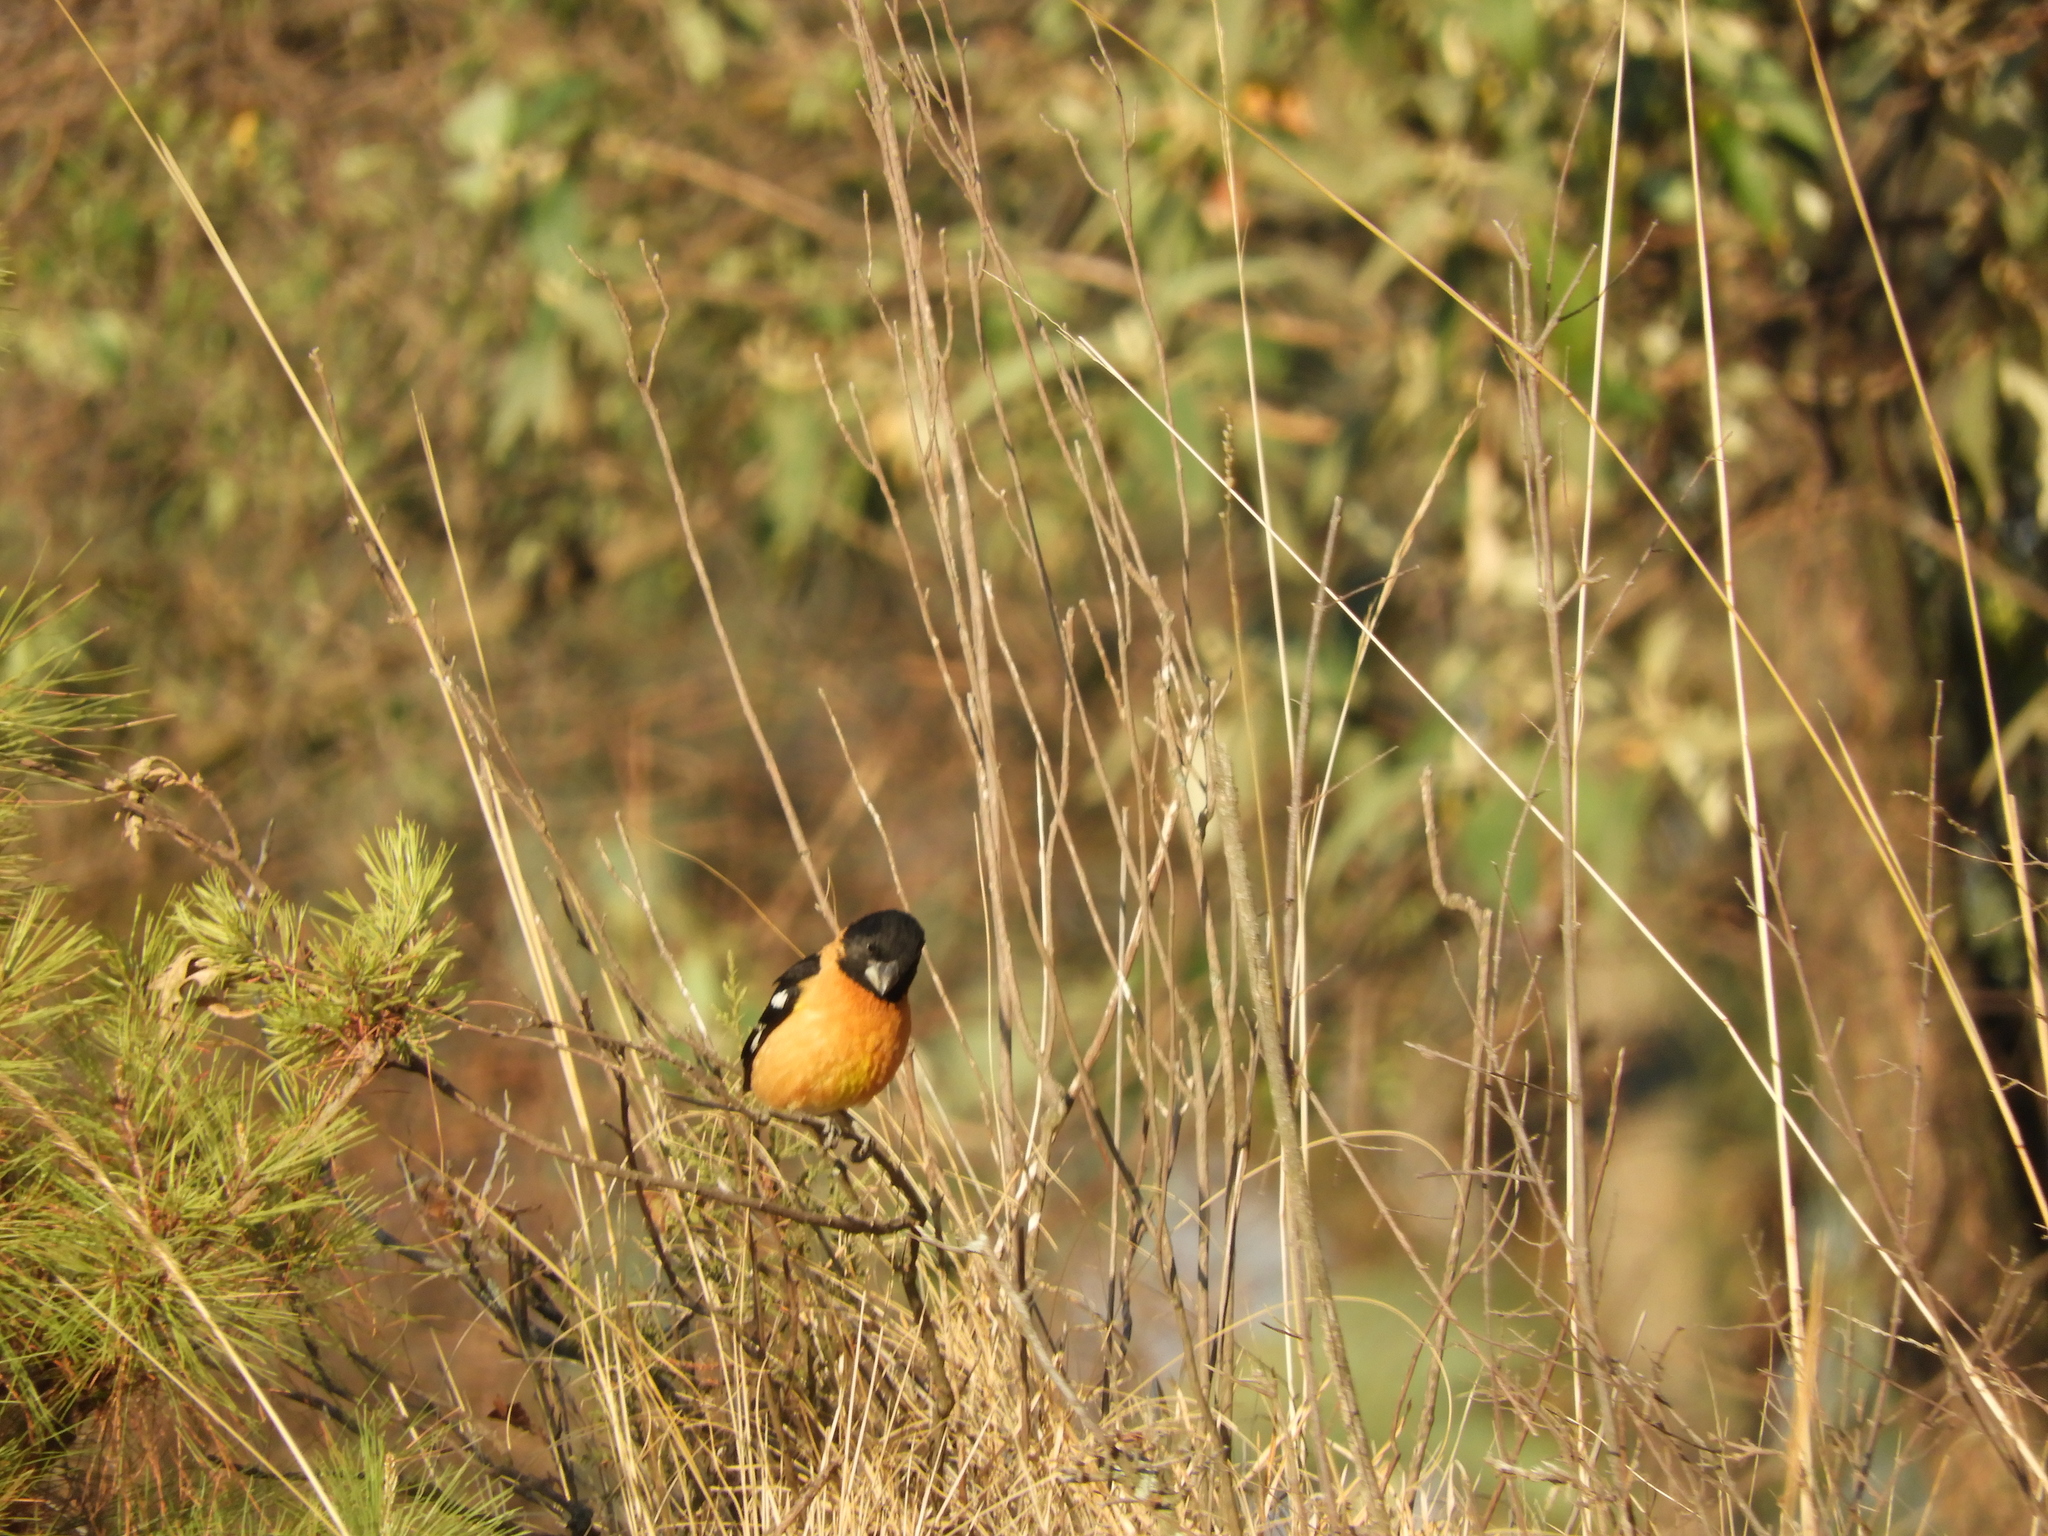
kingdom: Animalia
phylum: Chordata
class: Aves
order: Passeriformes
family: Cardinalidae
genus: Pheucticus
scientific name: Pheucticus melanocephalus
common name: Black-headed grosbeak
